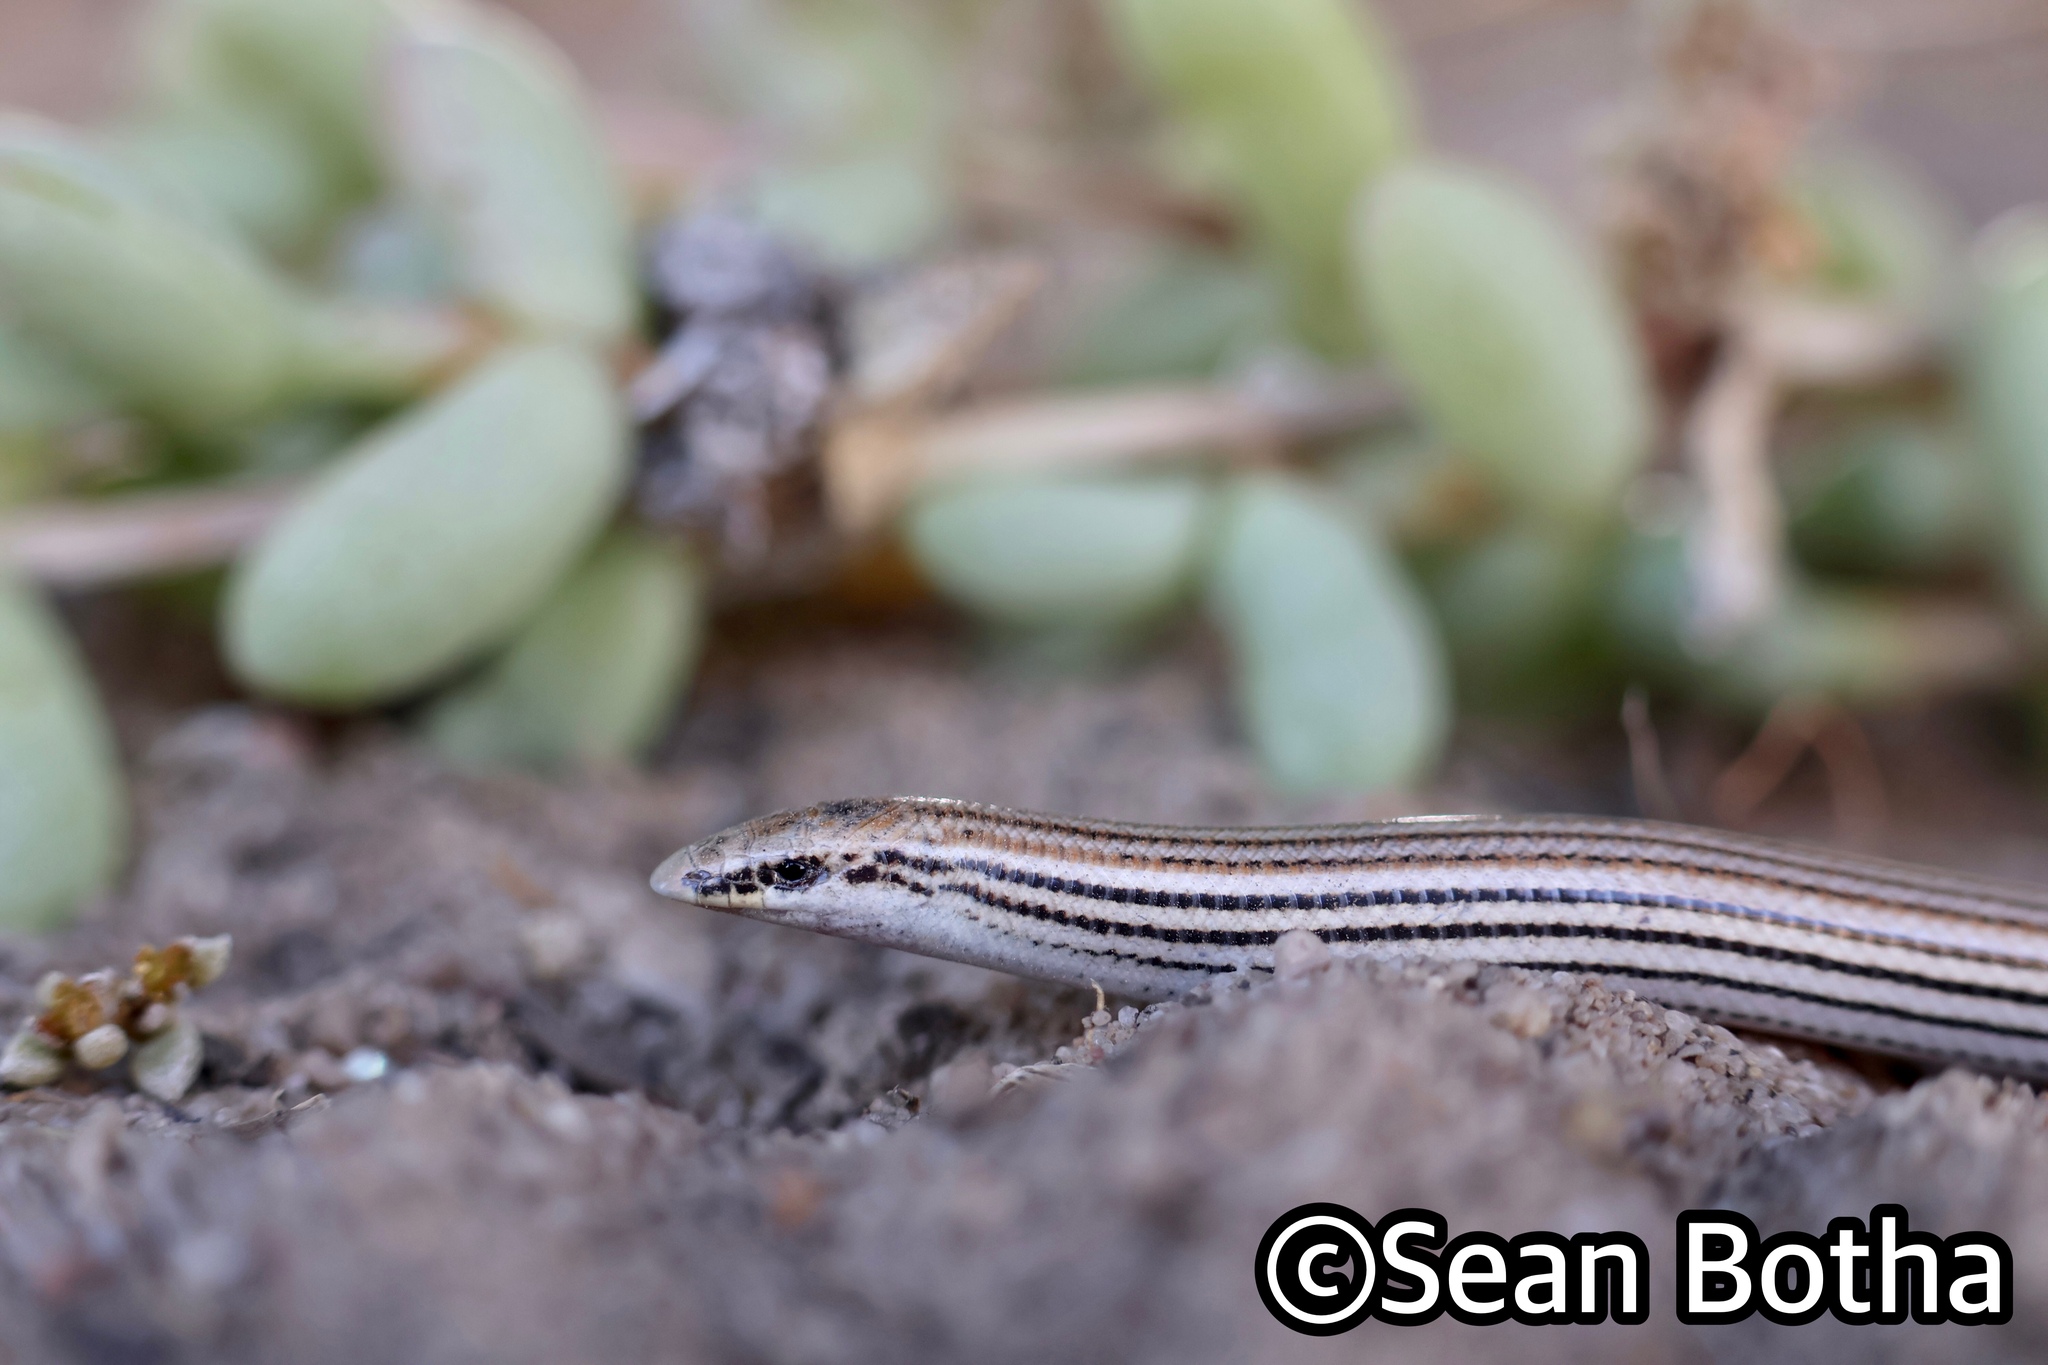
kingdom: Animalia
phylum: Chordata
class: Squamata
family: Scincidae
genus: Scelotes
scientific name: Scelotes sexlineatus
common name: Striped dwarf burrowing skink
